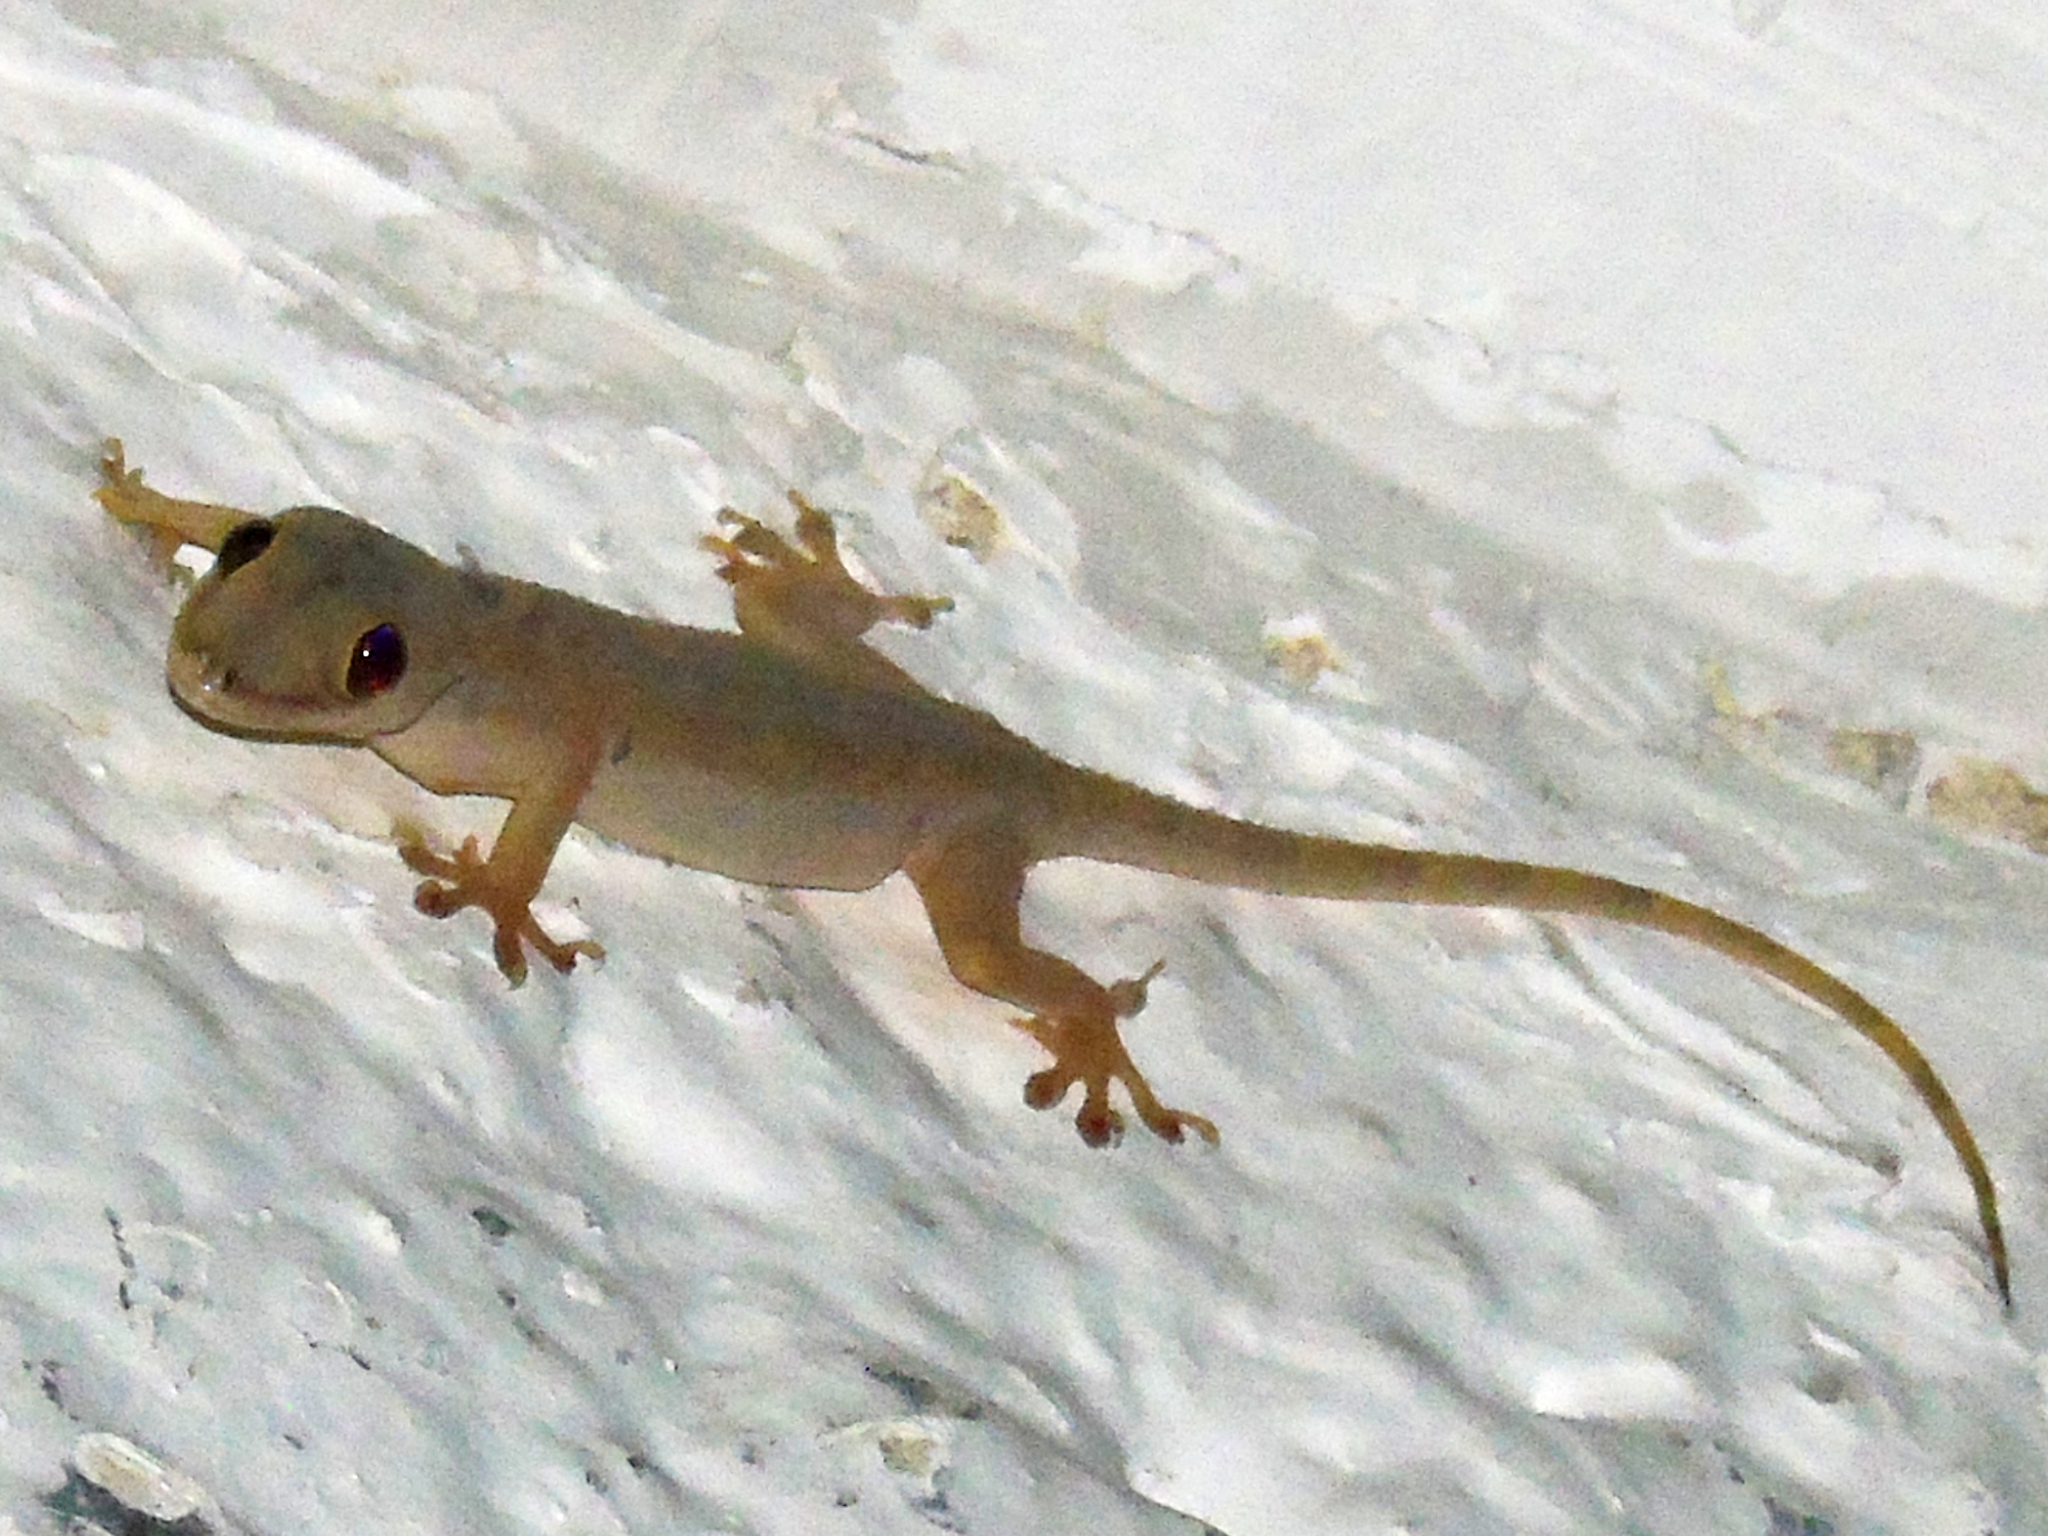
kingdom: Animalia
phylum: Chordata
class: Squamata
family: Gekkonidae
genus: Hemidactylus
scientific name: Hemidactylus mabouia
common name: House gecko
